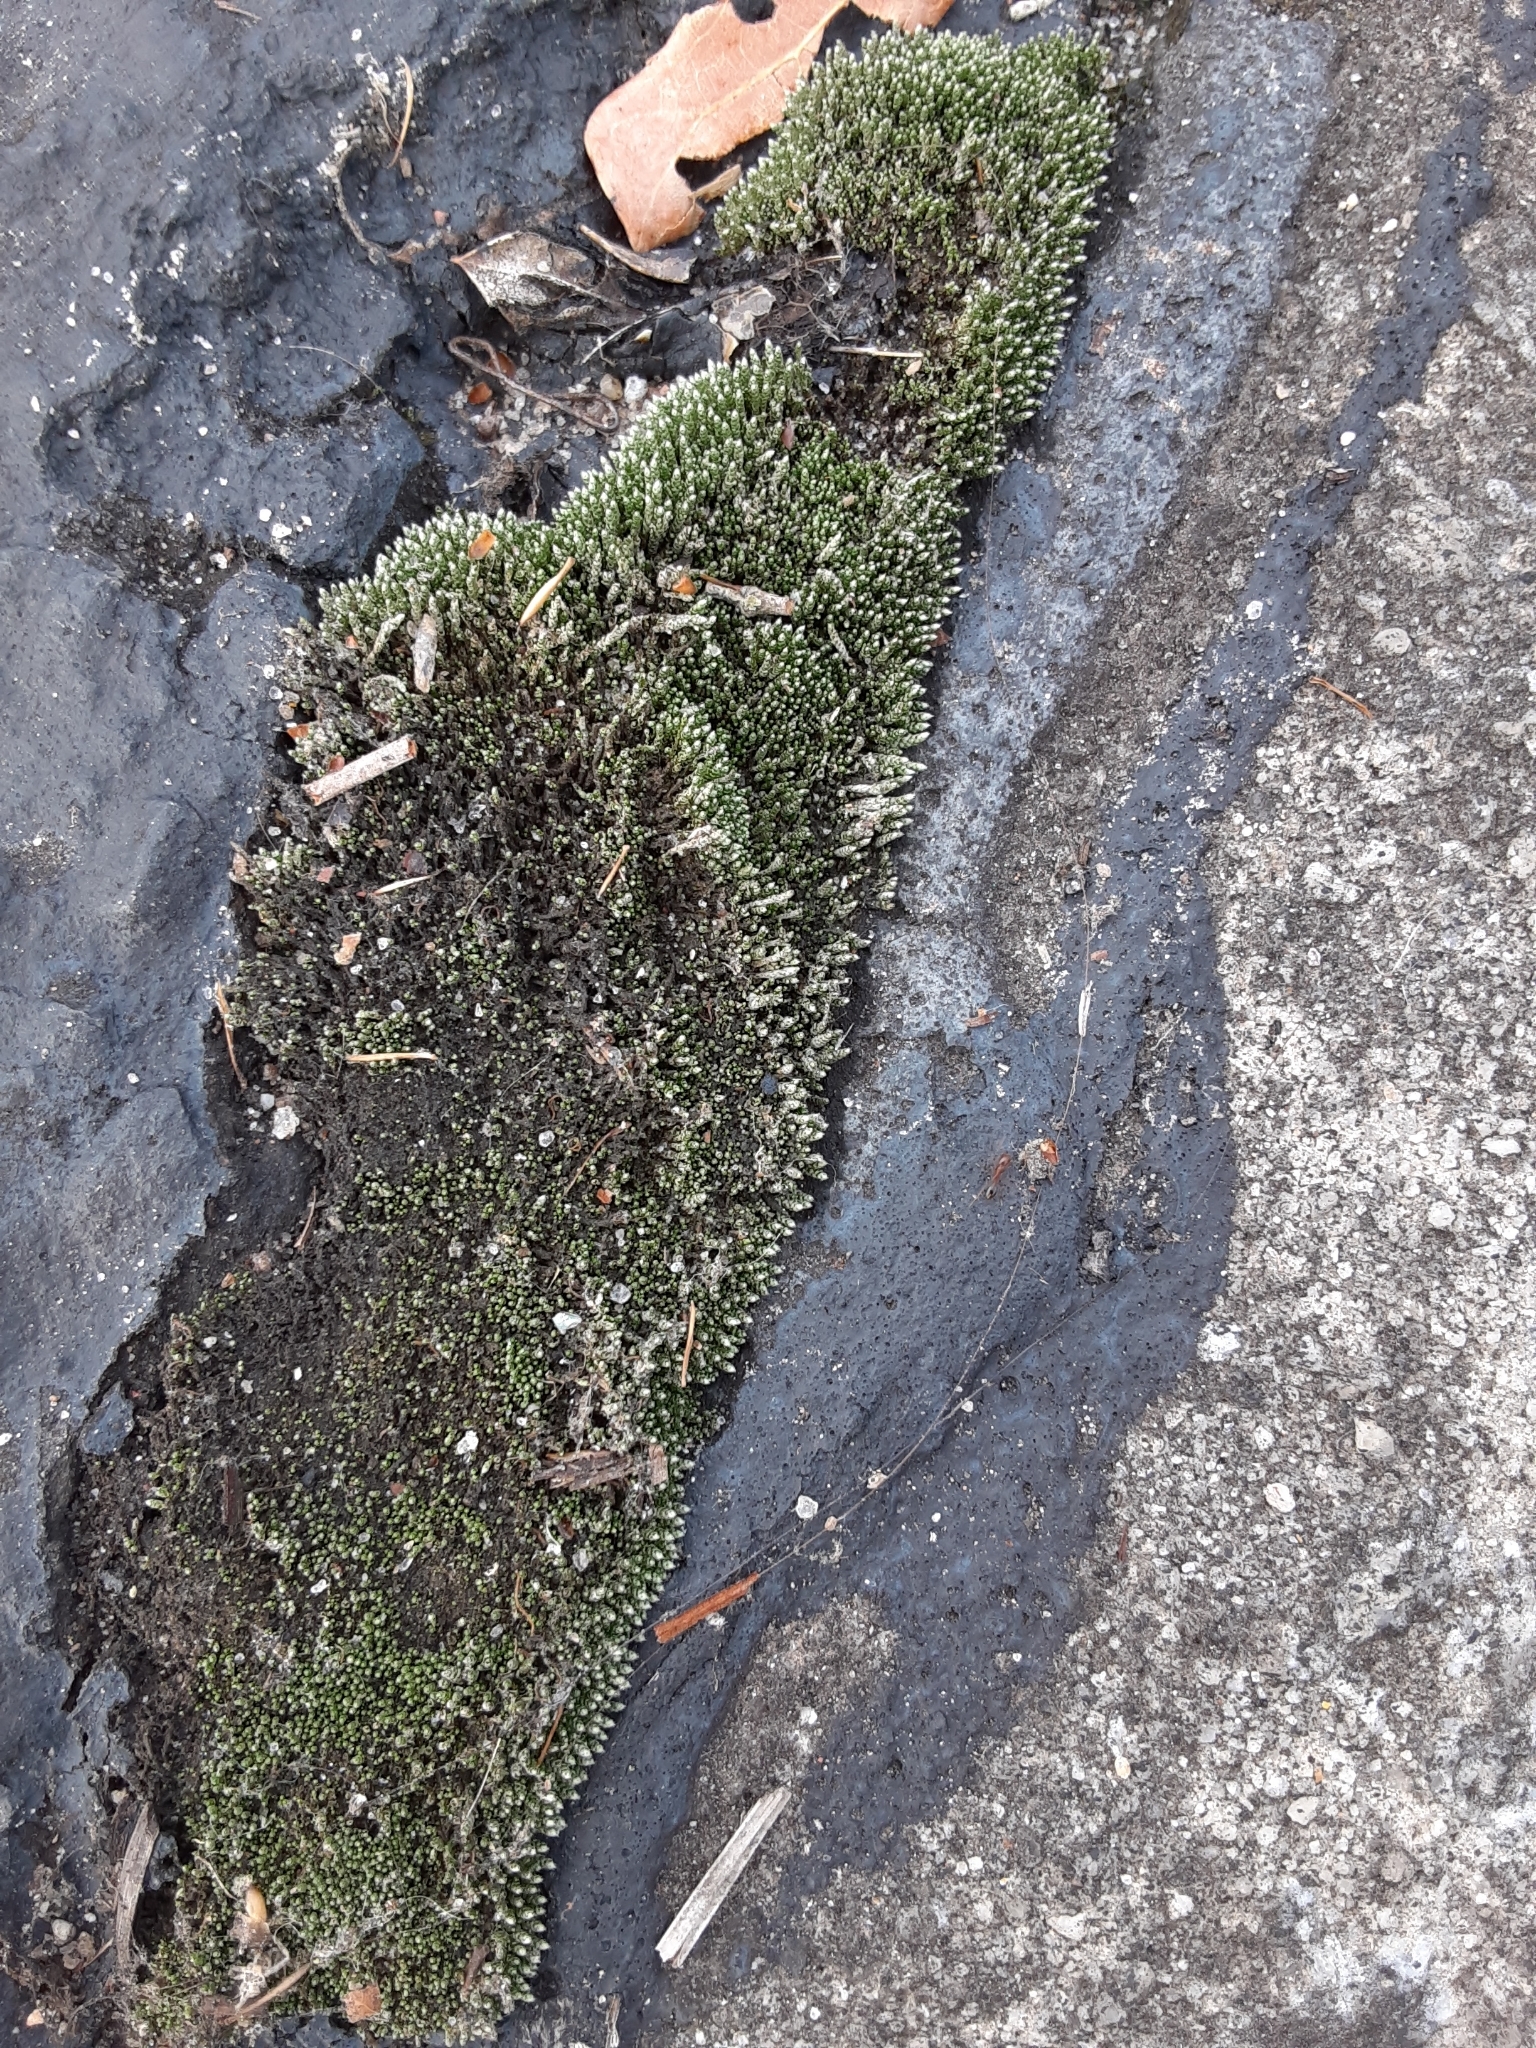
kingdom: Plantae
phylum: Bryophyta
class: Bryopsida
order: Bryales
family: Bryaceae
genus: Bryum
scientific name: Bryum argenteum
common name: Silver-moss
